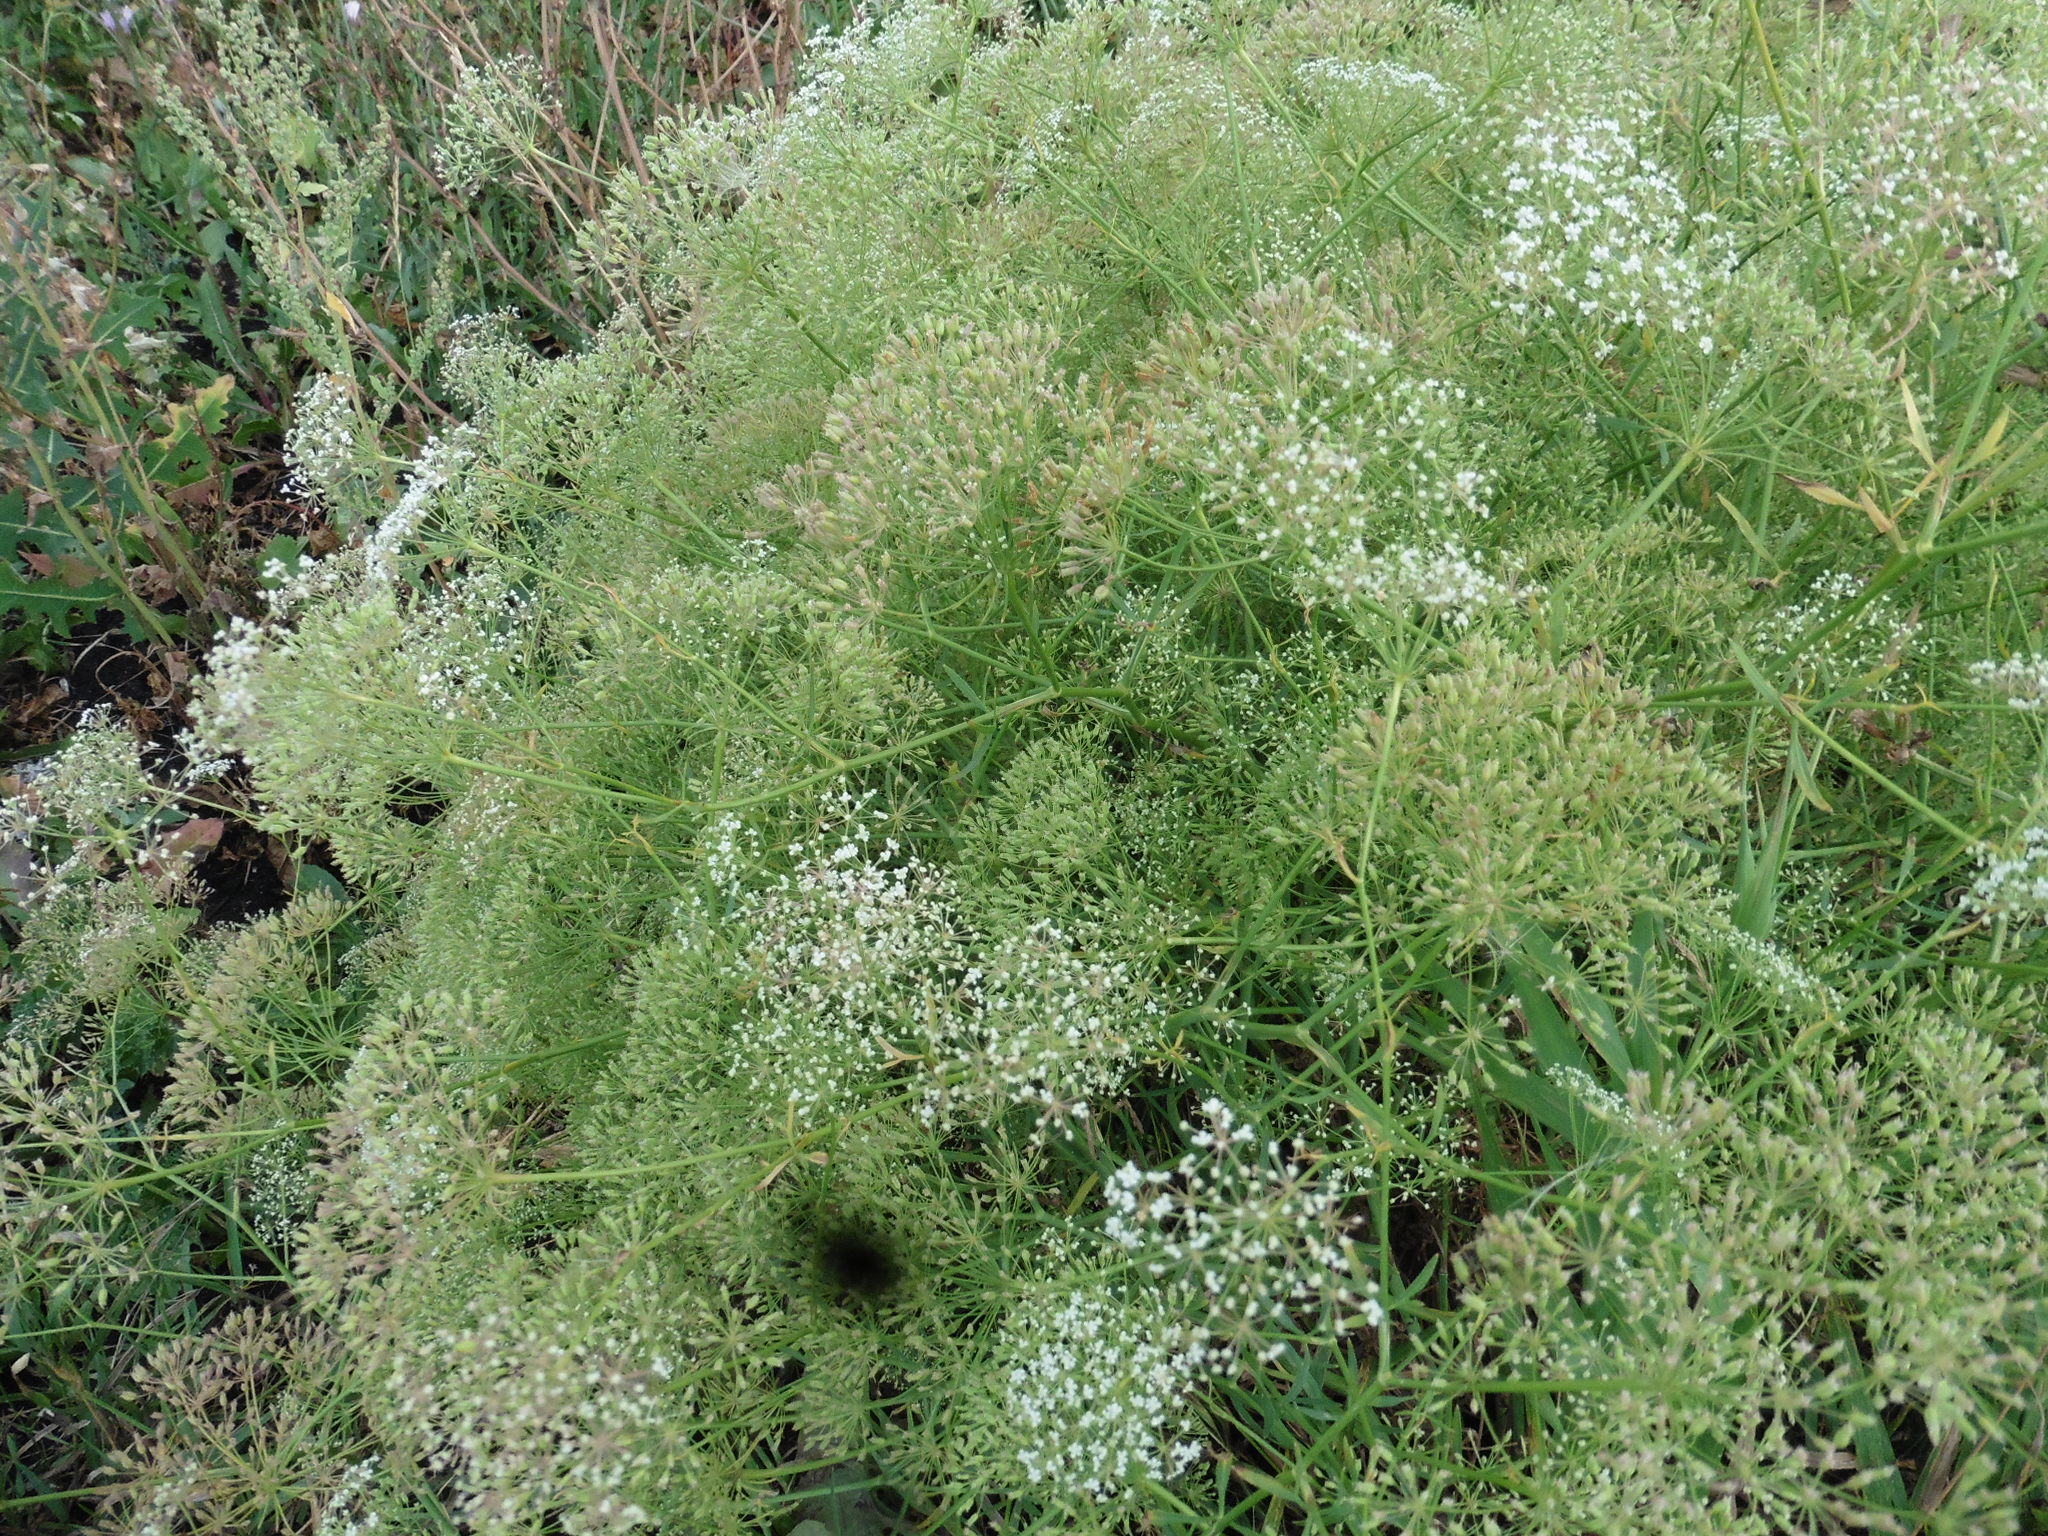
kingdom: Plantae
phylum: Tracheophyta
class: Magnoliopsida
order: Apiales
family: Apiaceae
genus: Falcaria
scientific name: Falcaria vulgaris
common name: Longleaf
